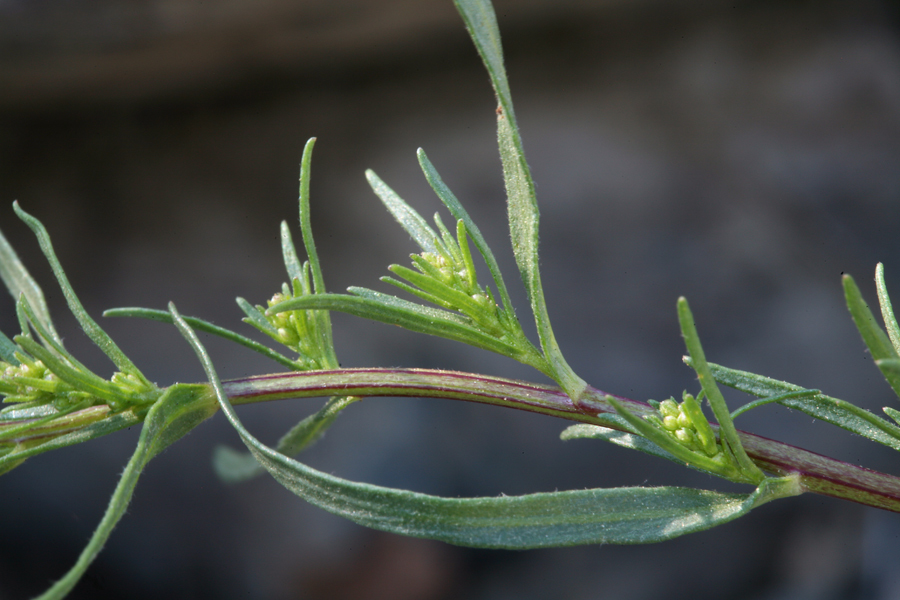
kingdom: Plantae
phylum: Tracheophyta
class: Magnoliopsida
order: Asterales
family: Asteraceae
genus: Artemisia
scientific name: Artemisia dracunculus
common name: Tarragon
